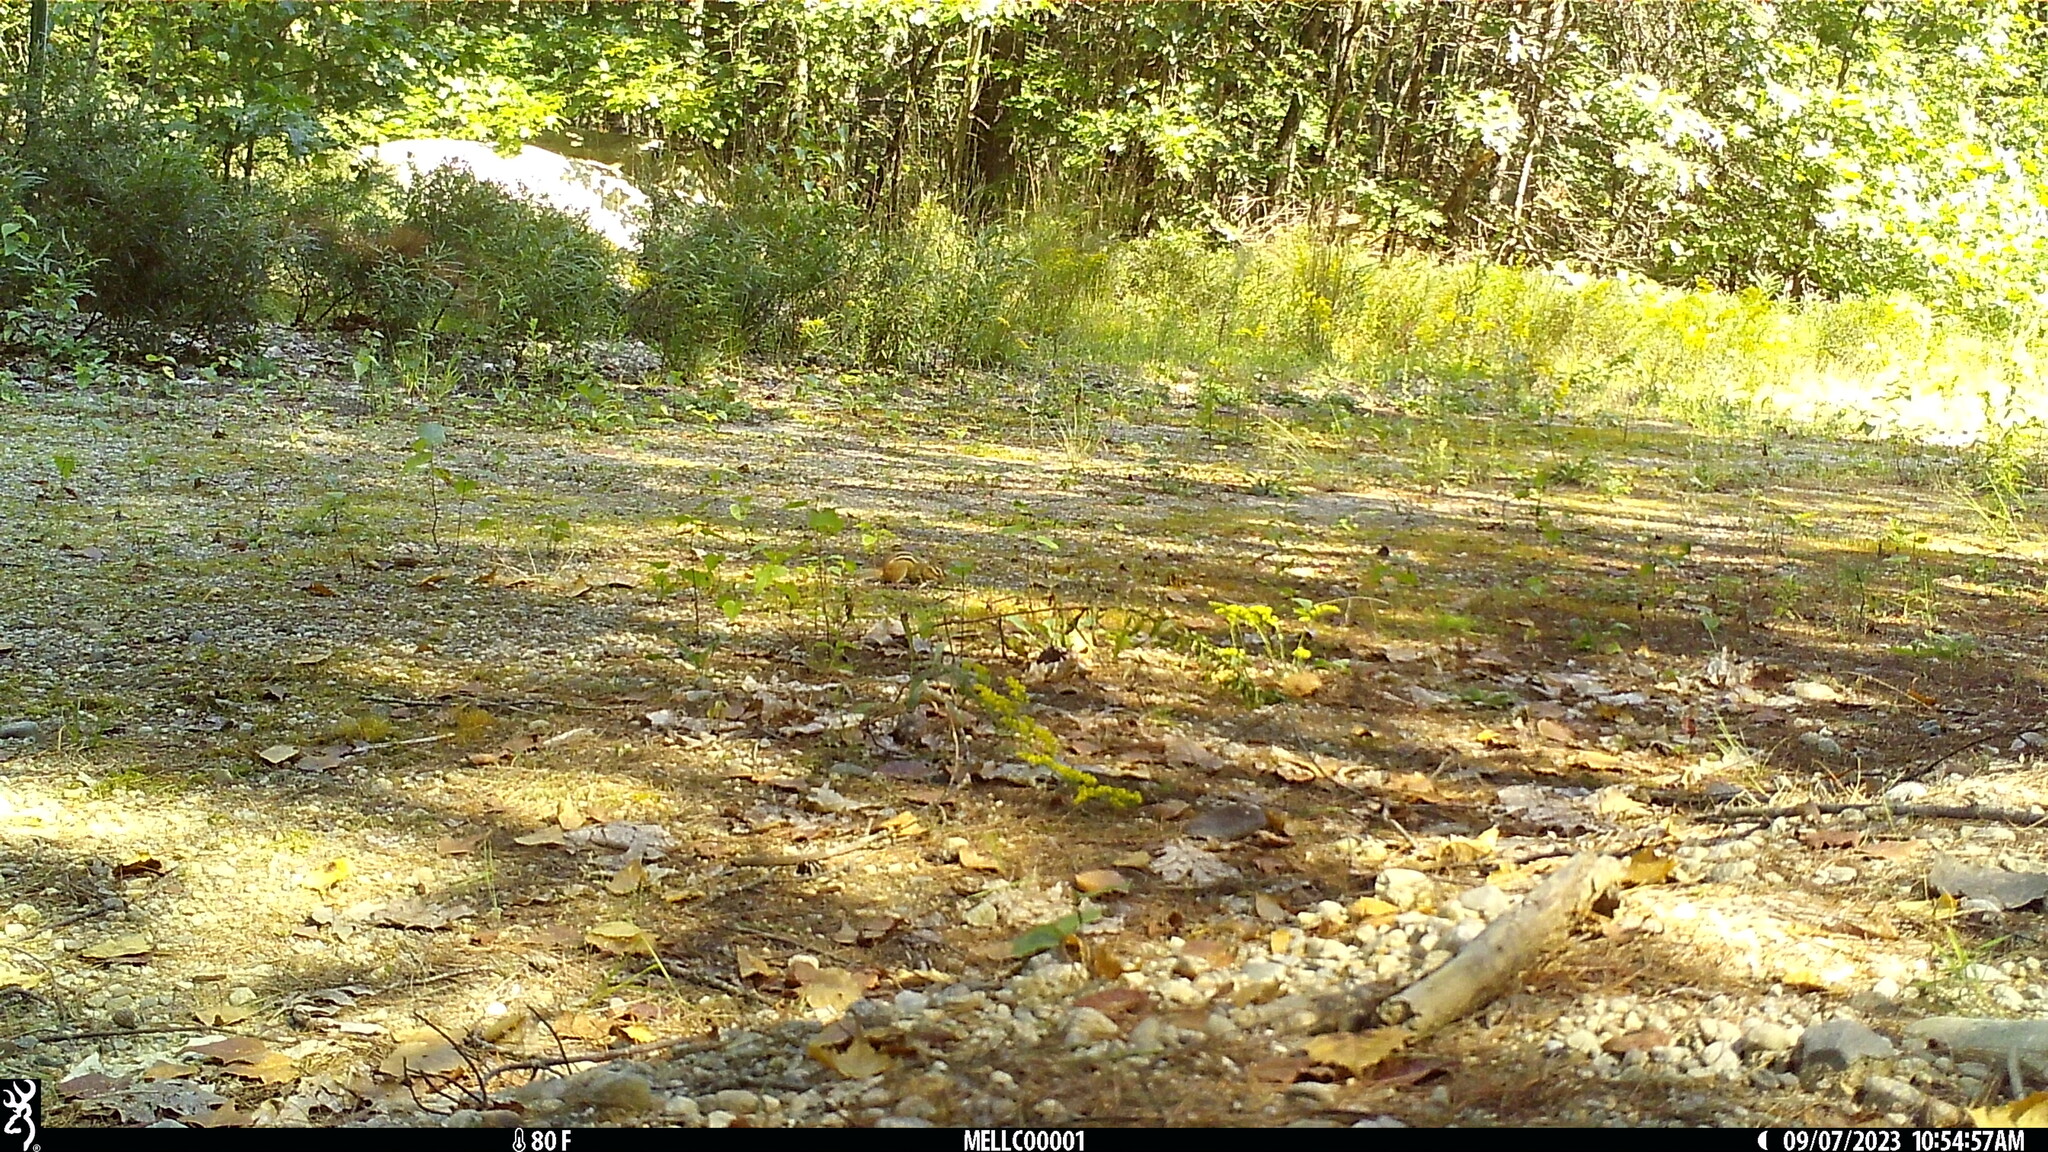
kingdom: Animalia
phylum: Chordata
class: Mammalia
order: Rodentia
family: Sciuridae
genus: Tamias
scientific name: Tamias striatus
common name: Eastern chipmunk
